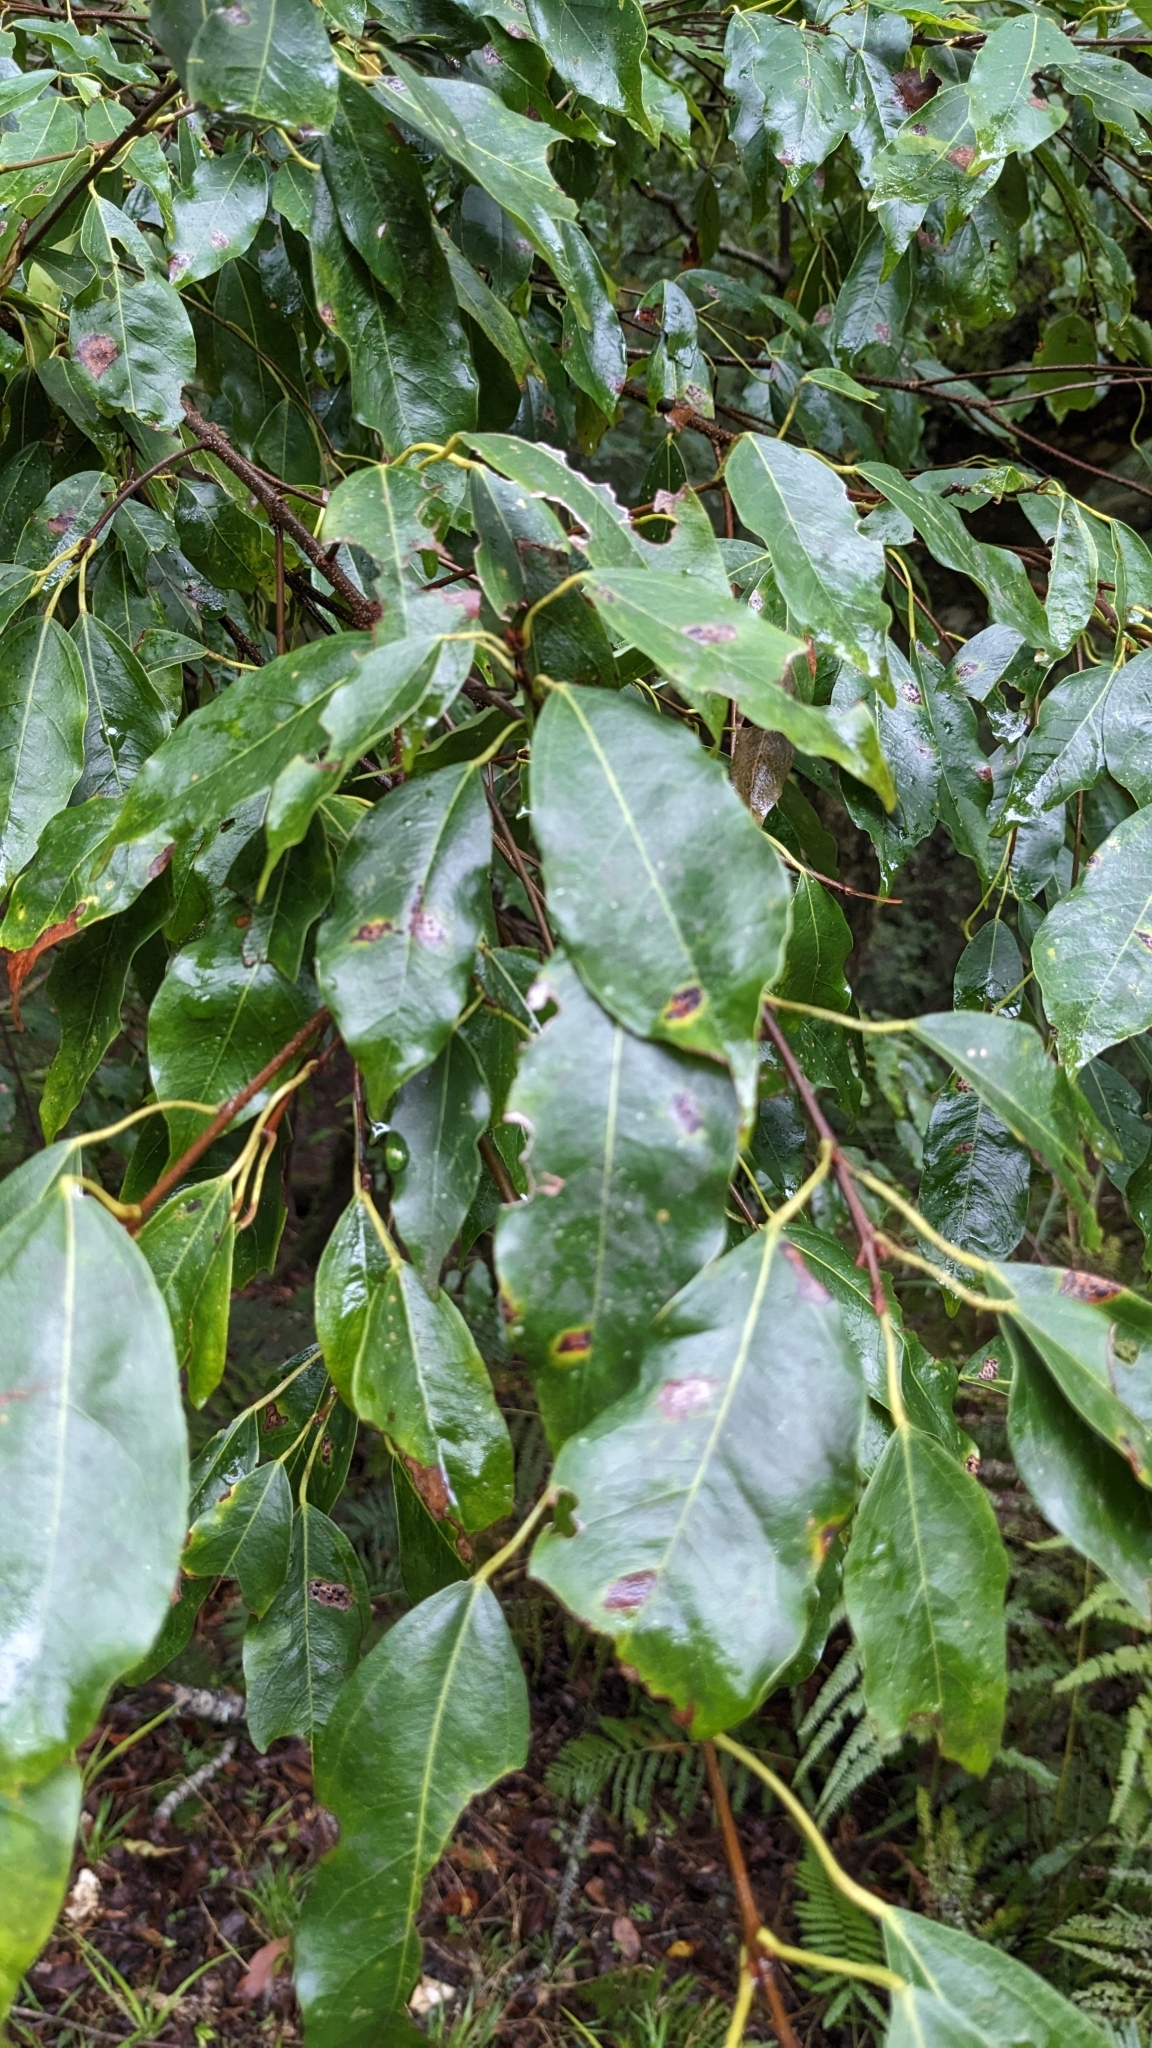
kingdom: Plantae
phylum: Tracheophyta
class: Magnoliopsida
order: Sapindales
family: Sapindaceae
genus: Acer
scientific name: Acer oblongum
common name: Himalayan maple
